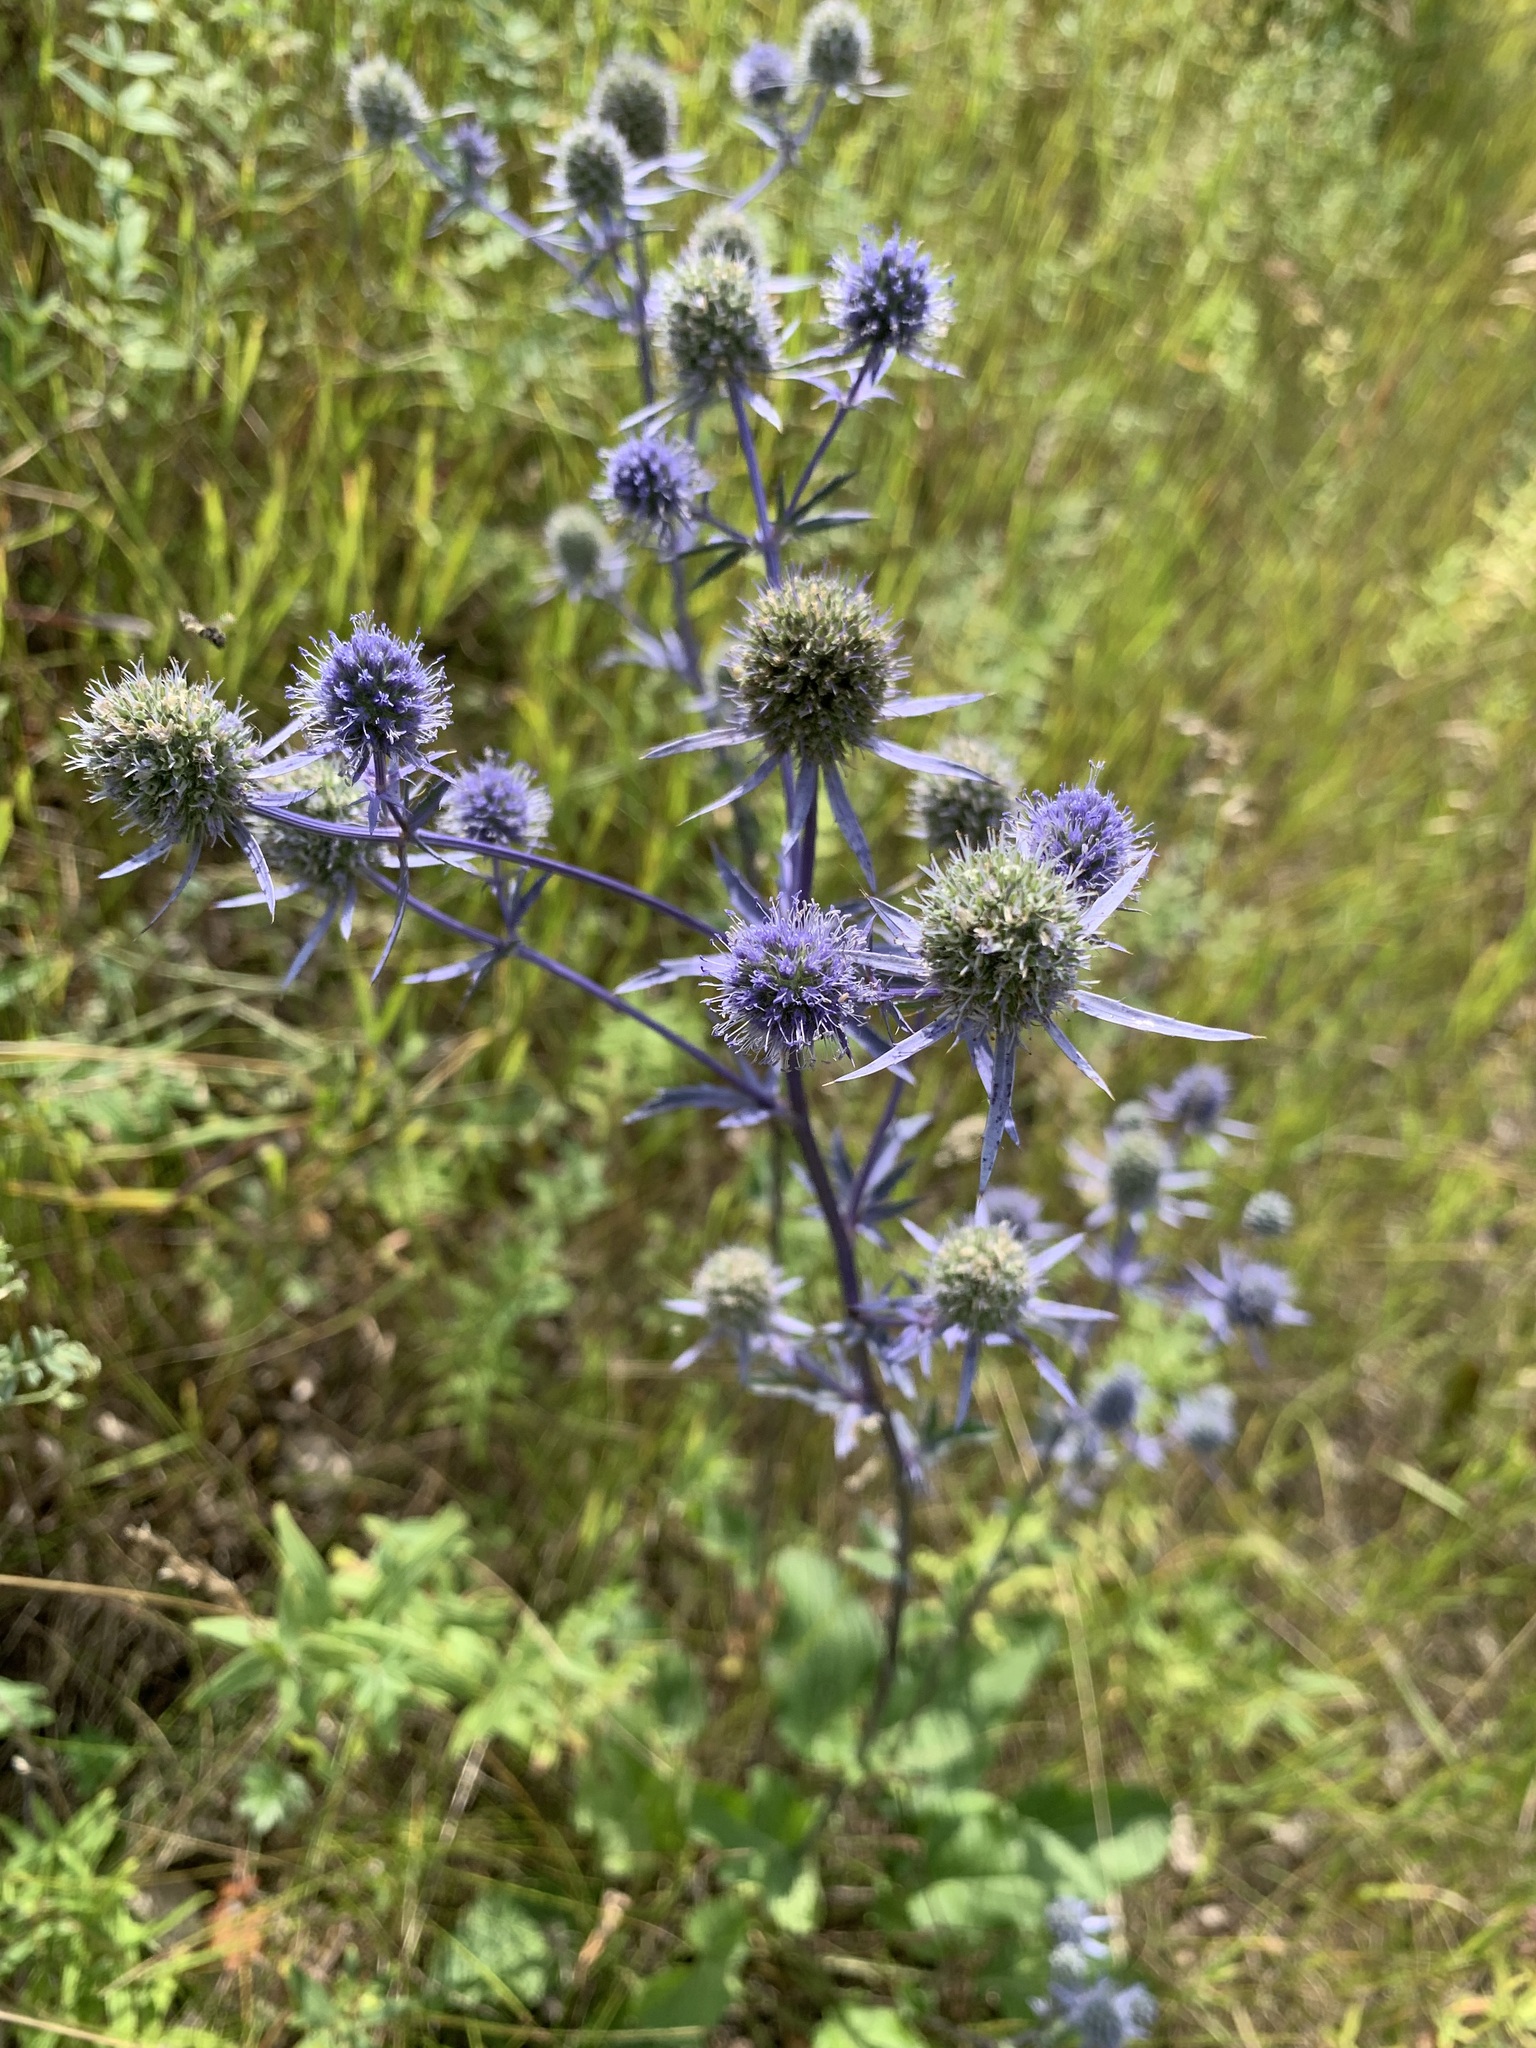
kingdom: Plantae
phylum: Tracheophyta
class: Magnoliopsida
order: Apiales
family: Apiaceae
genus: Eryngium
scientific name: Eryngium planum
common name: Blue eryngo
